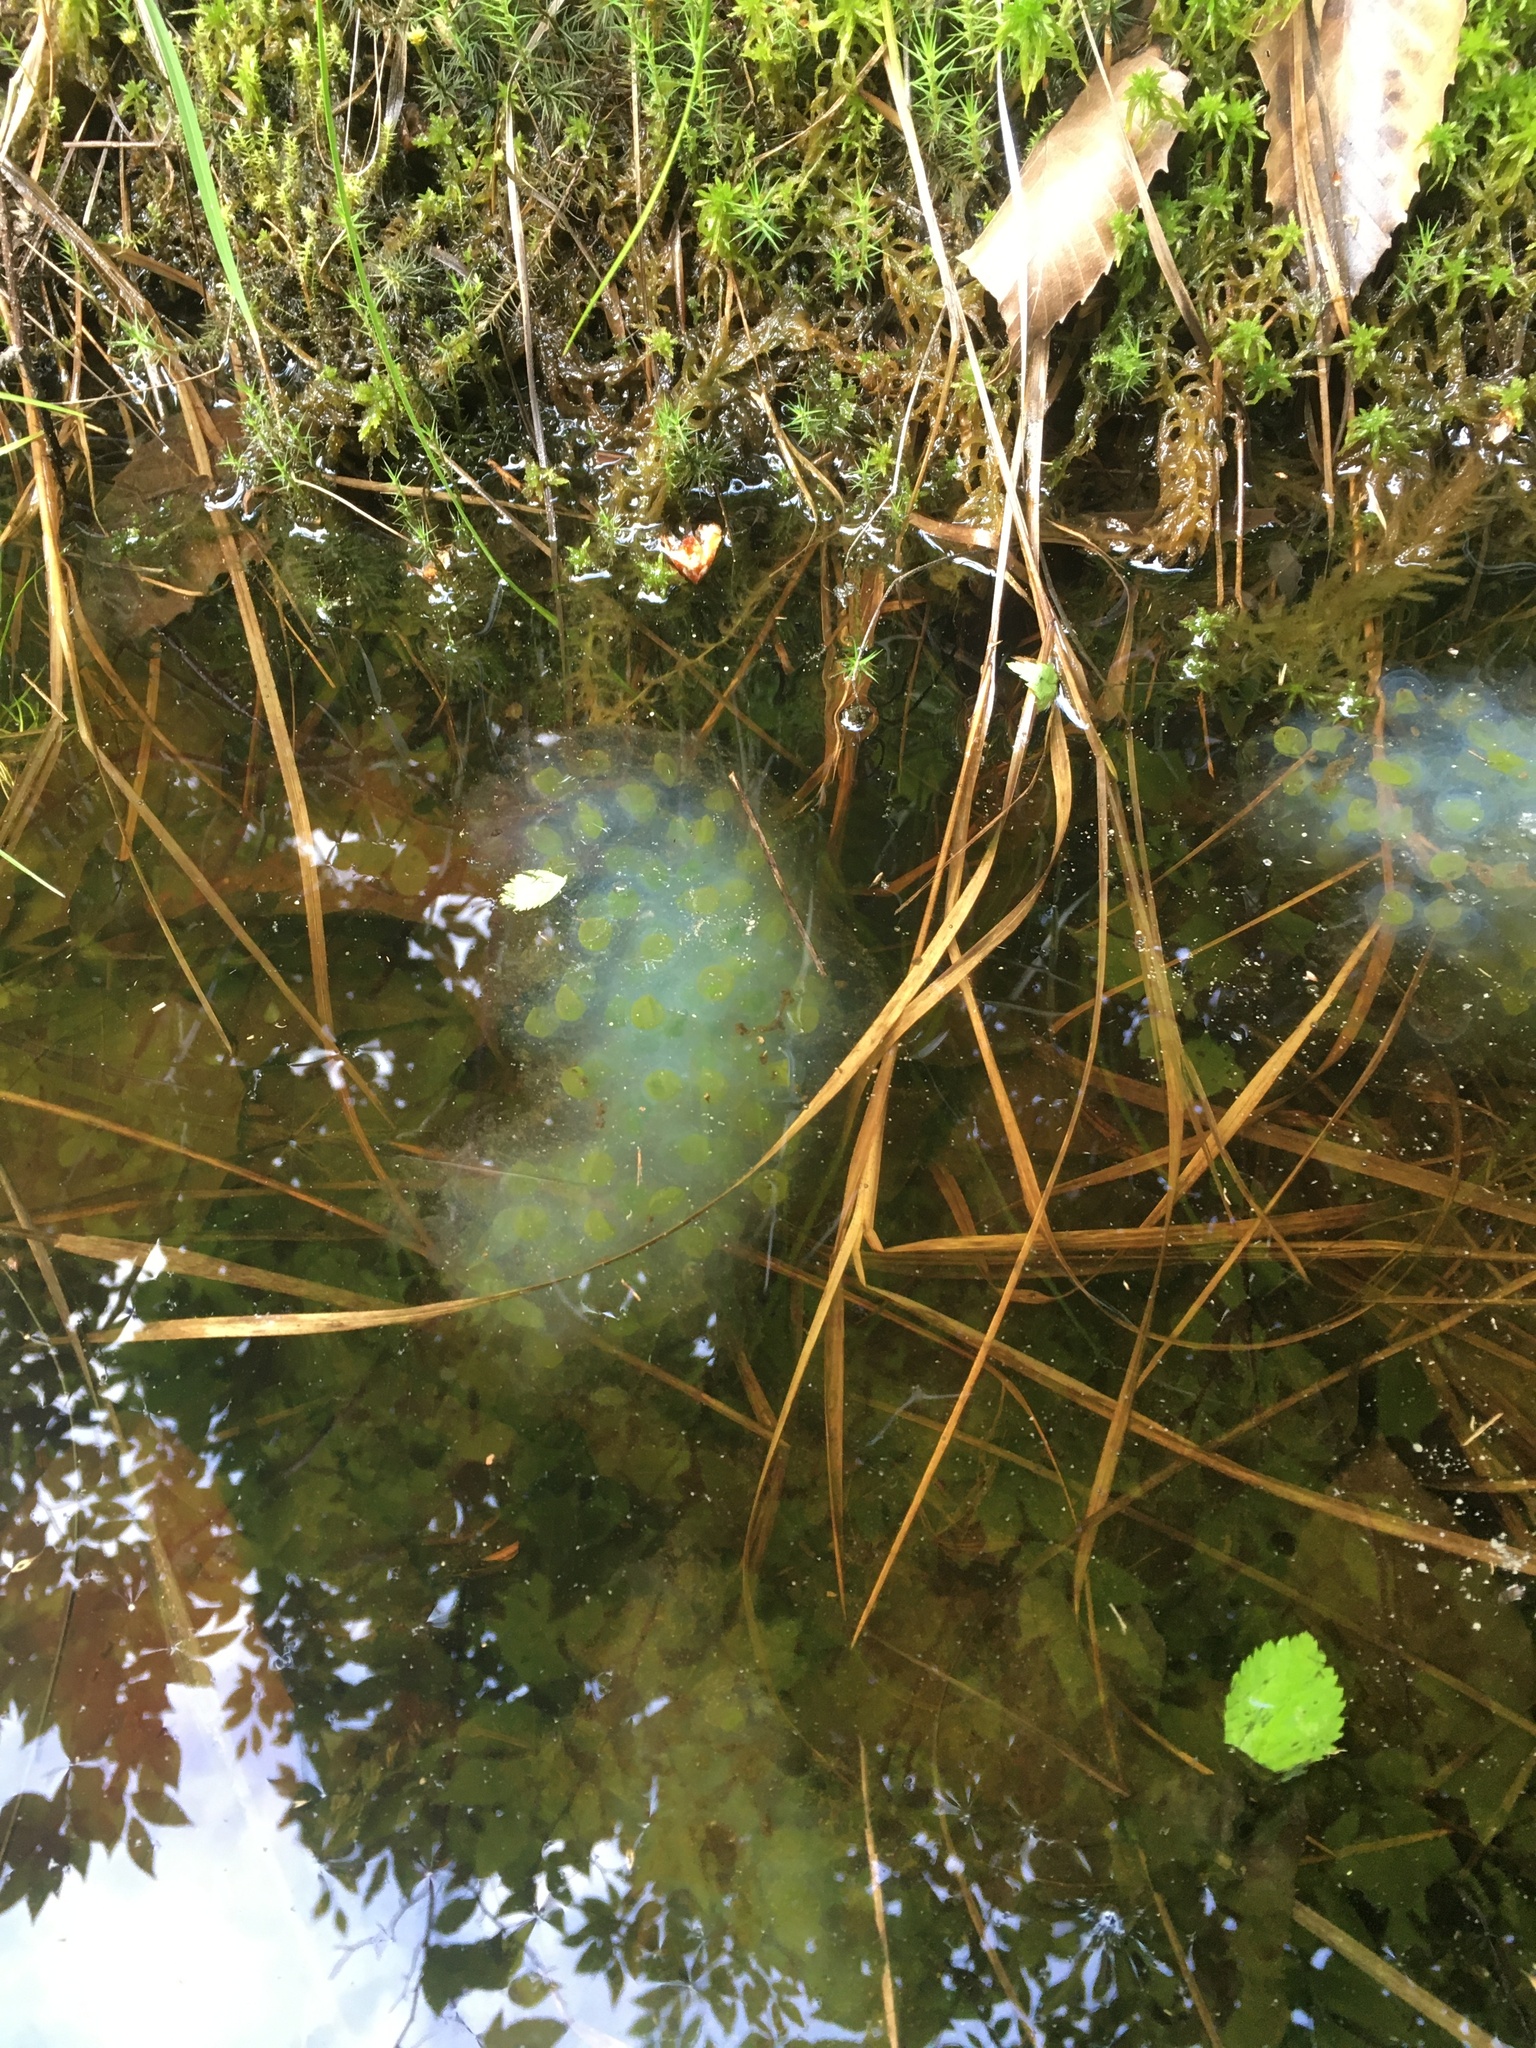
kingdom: Animalia
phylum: Chordata
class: Amphibia
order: Caudata
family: Ambystomatidae
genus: Ambystoma
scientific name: Ambystoma maculatum
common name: Spotted salamander
